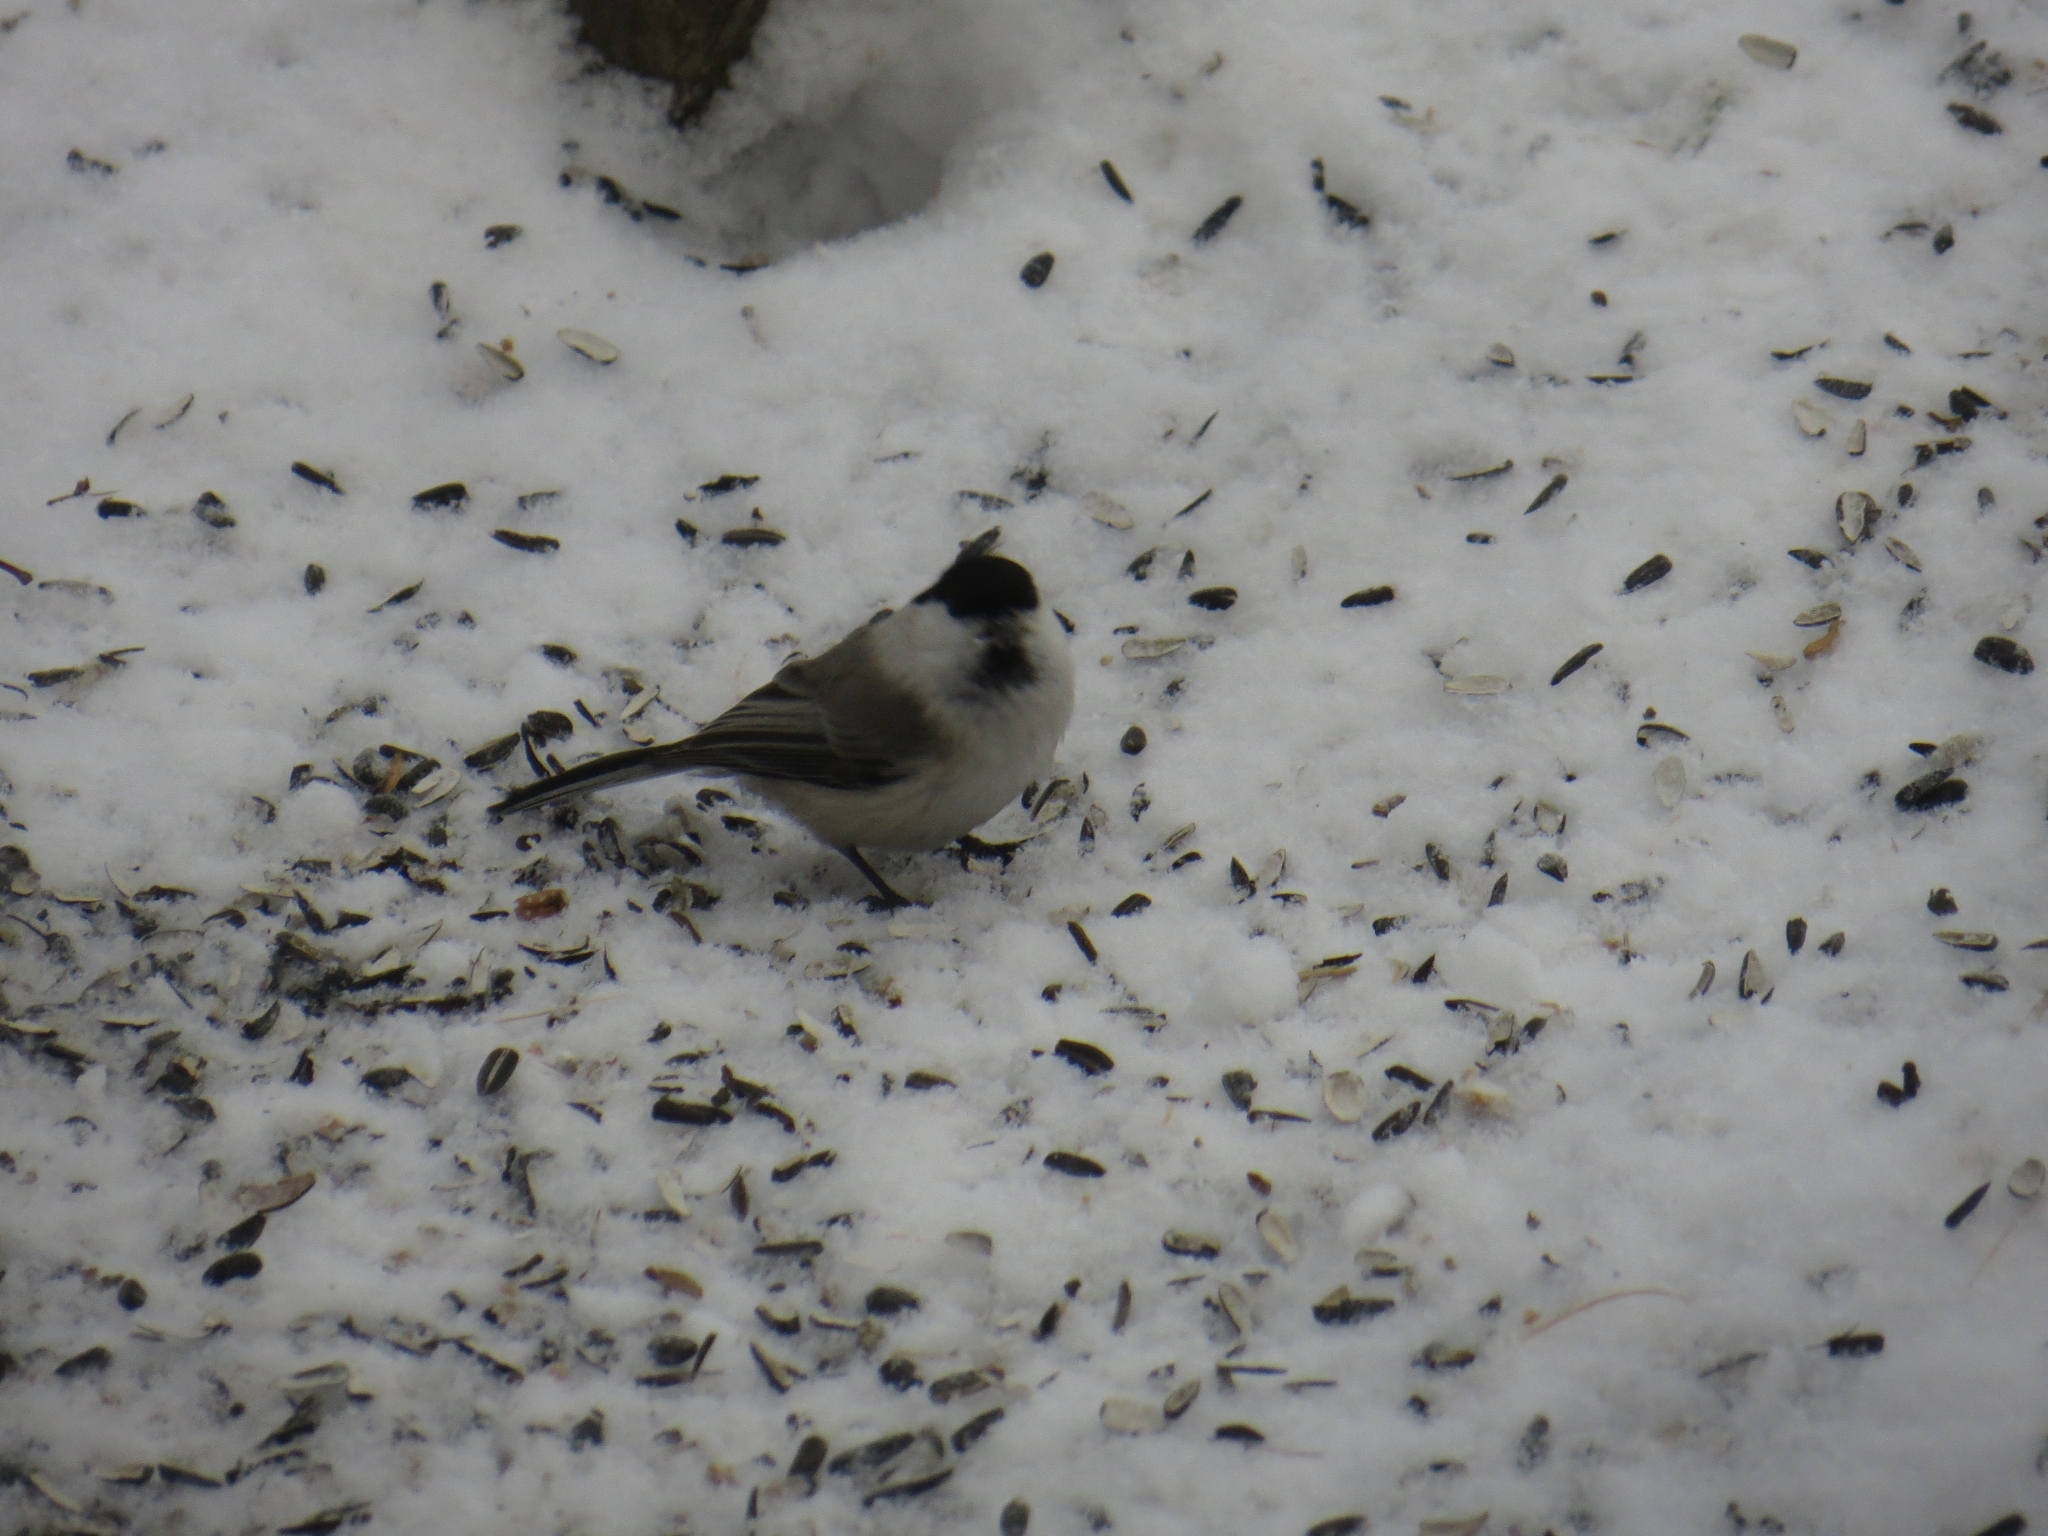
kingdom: Animalia
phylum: Chordata
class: Aves
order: Passeriformes
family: Paridae
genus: Poecile
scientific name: Poecile montanus
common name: Willow tit
